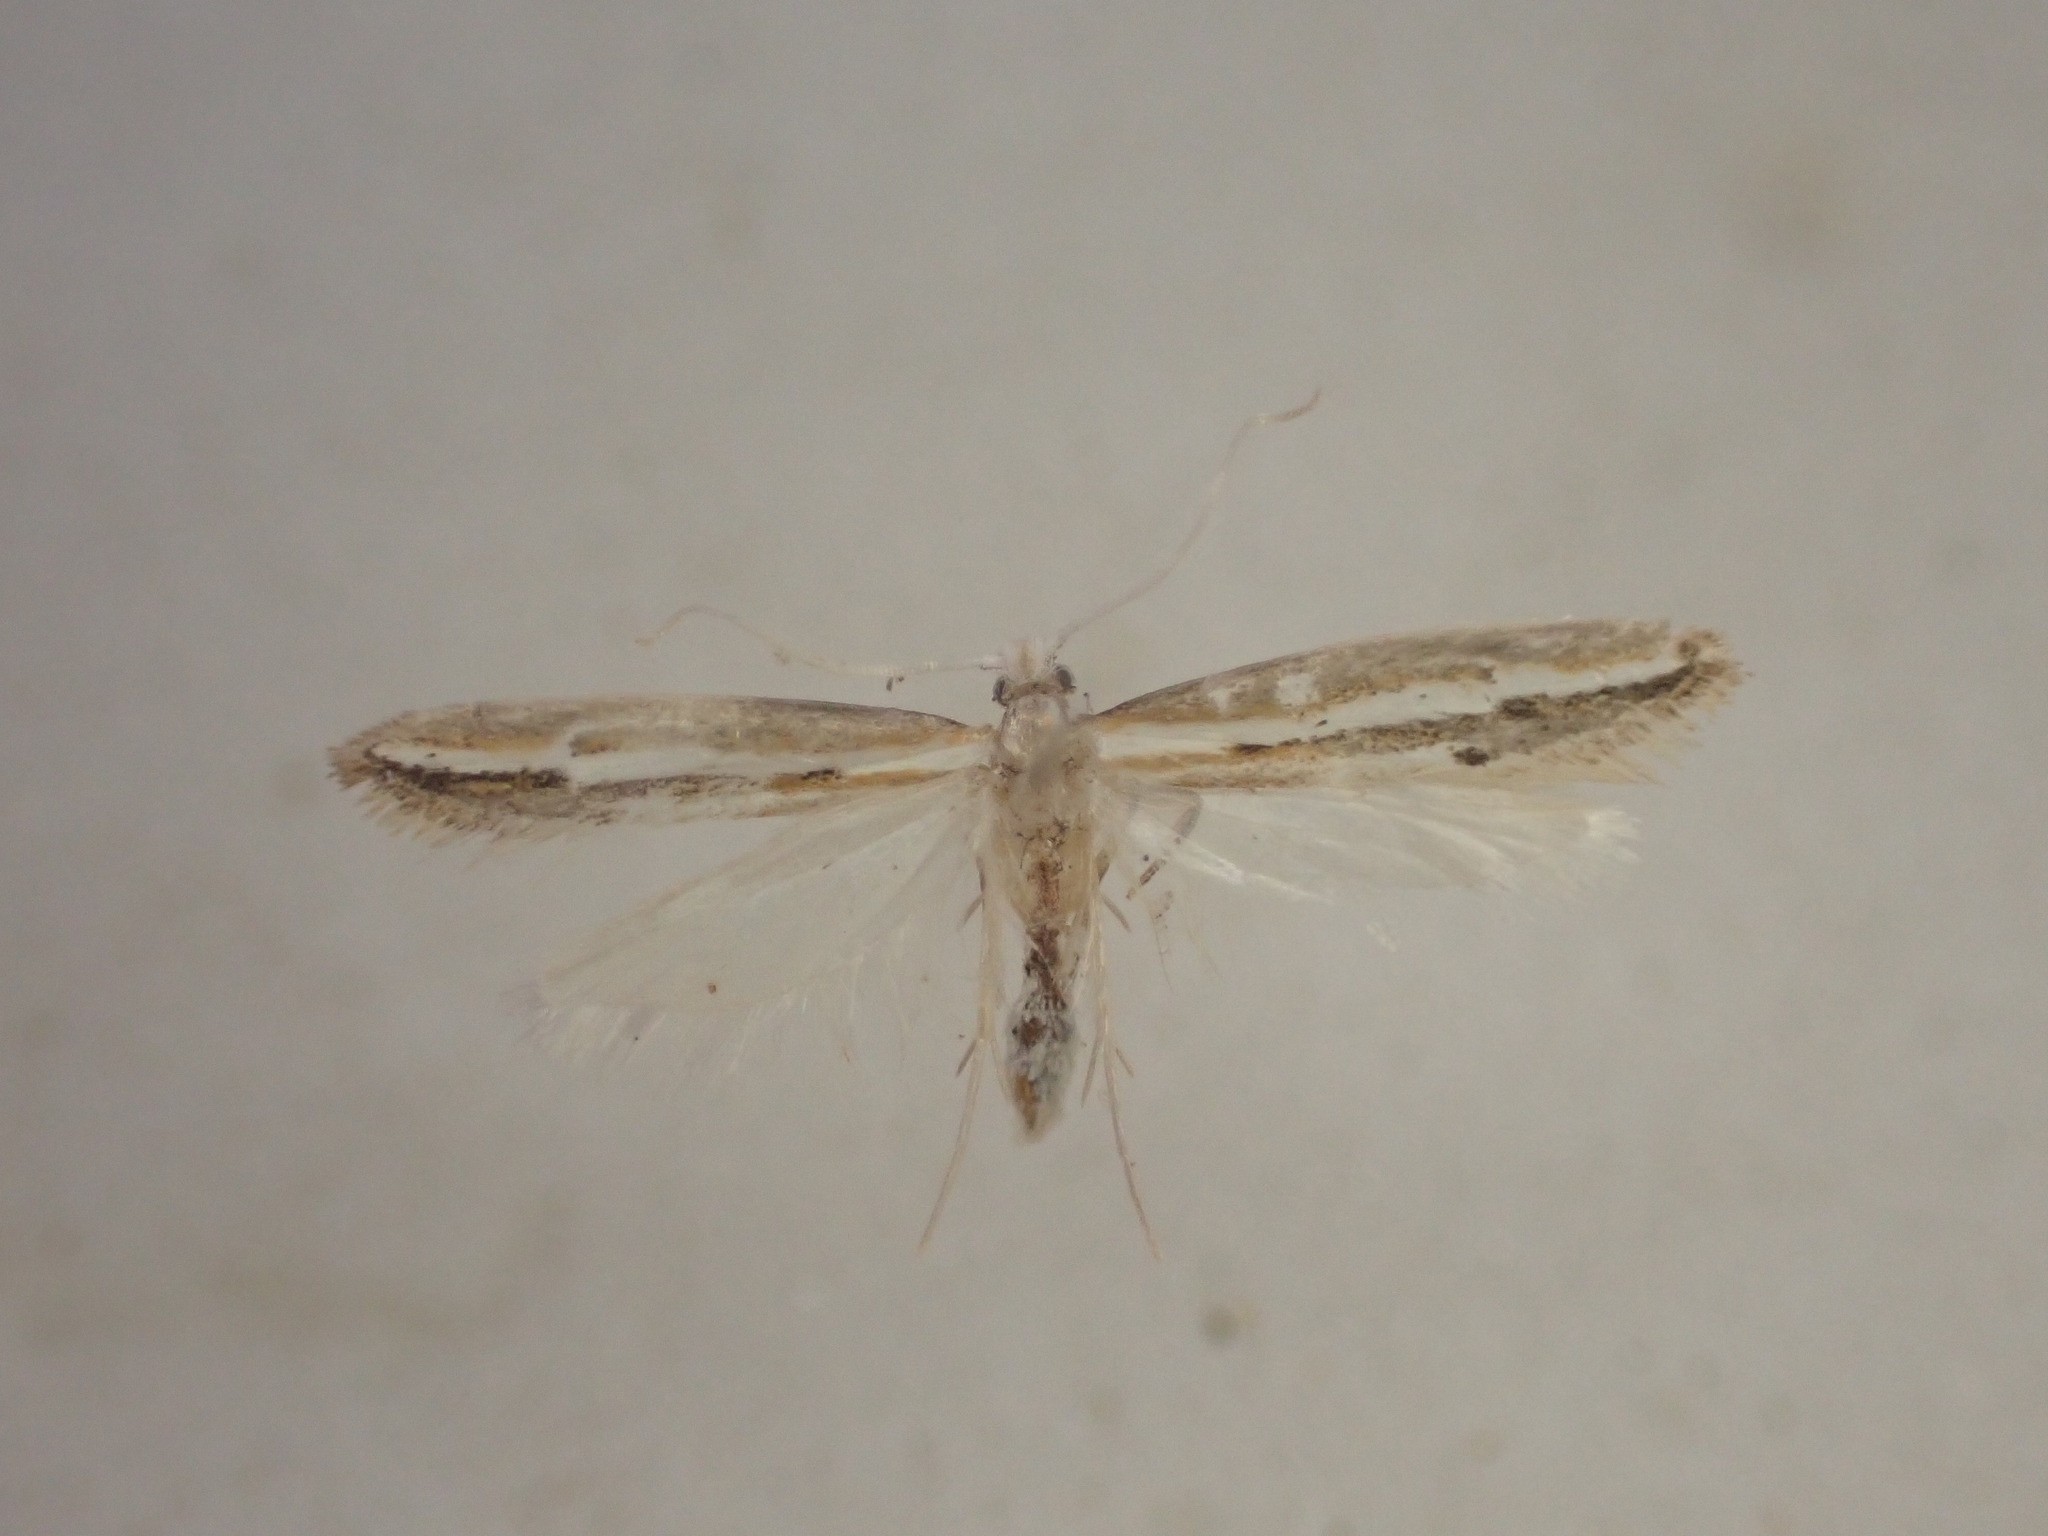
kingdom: Animalia
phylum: Arthropoda
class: Insecta
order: Lepidoptera
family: Tineidae
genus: Sagephora
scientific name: Sagephora exsanguis
